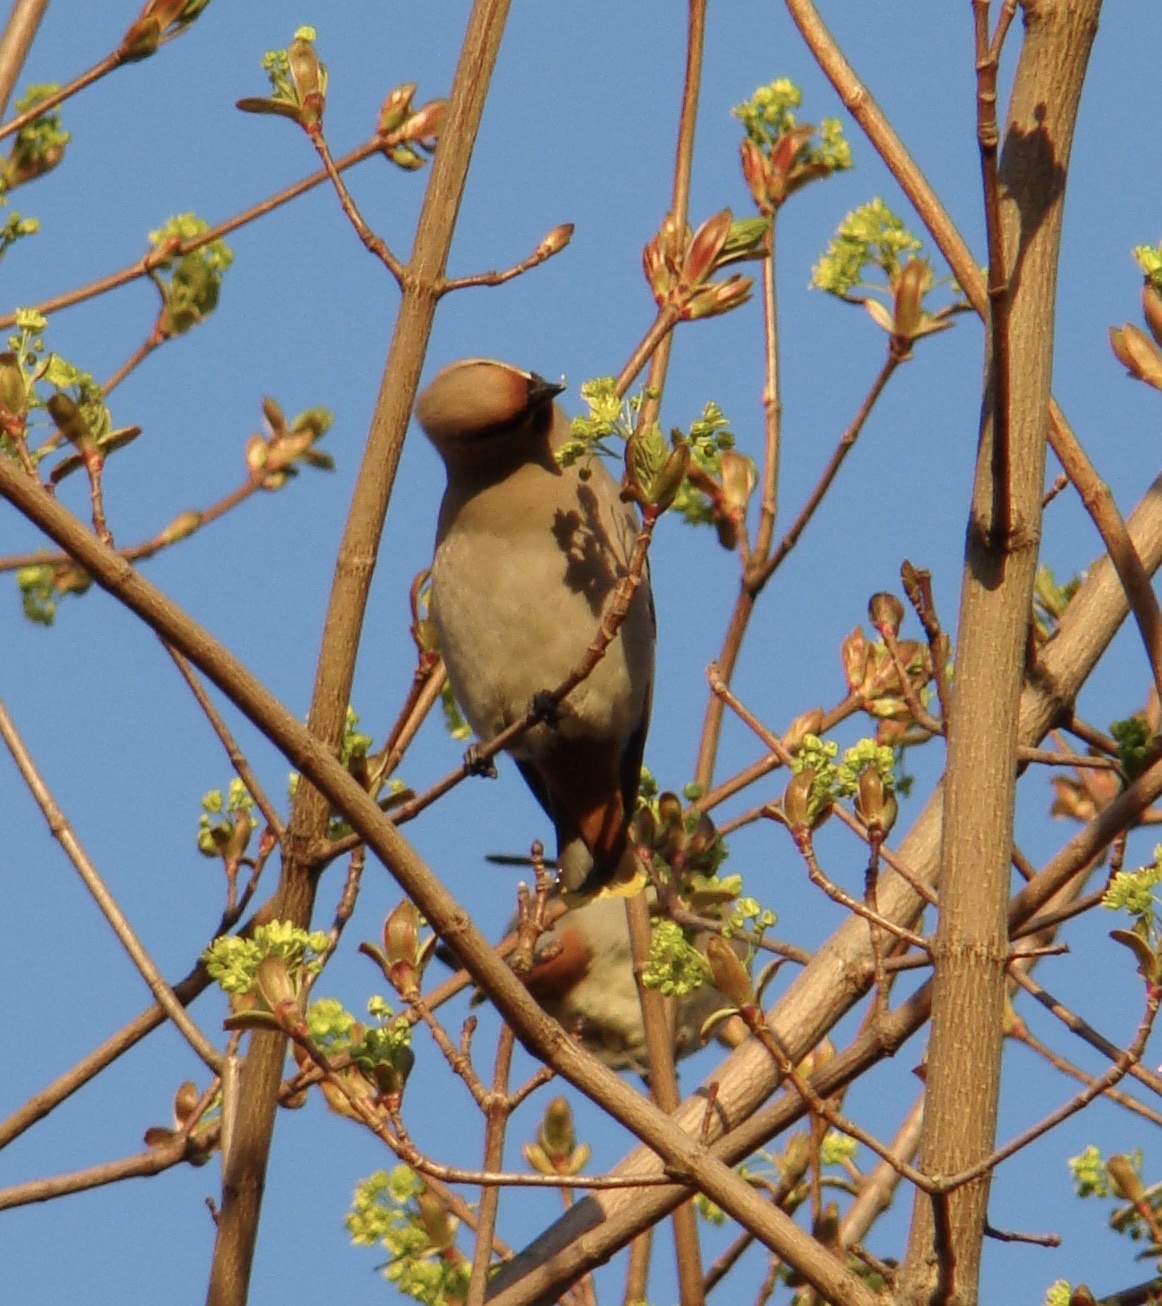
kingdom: Animalia
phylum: Chordata
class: Aves
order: Passeriformes
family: Bombycillidae
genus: Bombycilla
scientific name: Bombycilla garrulus
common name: Bohemian waxwing
